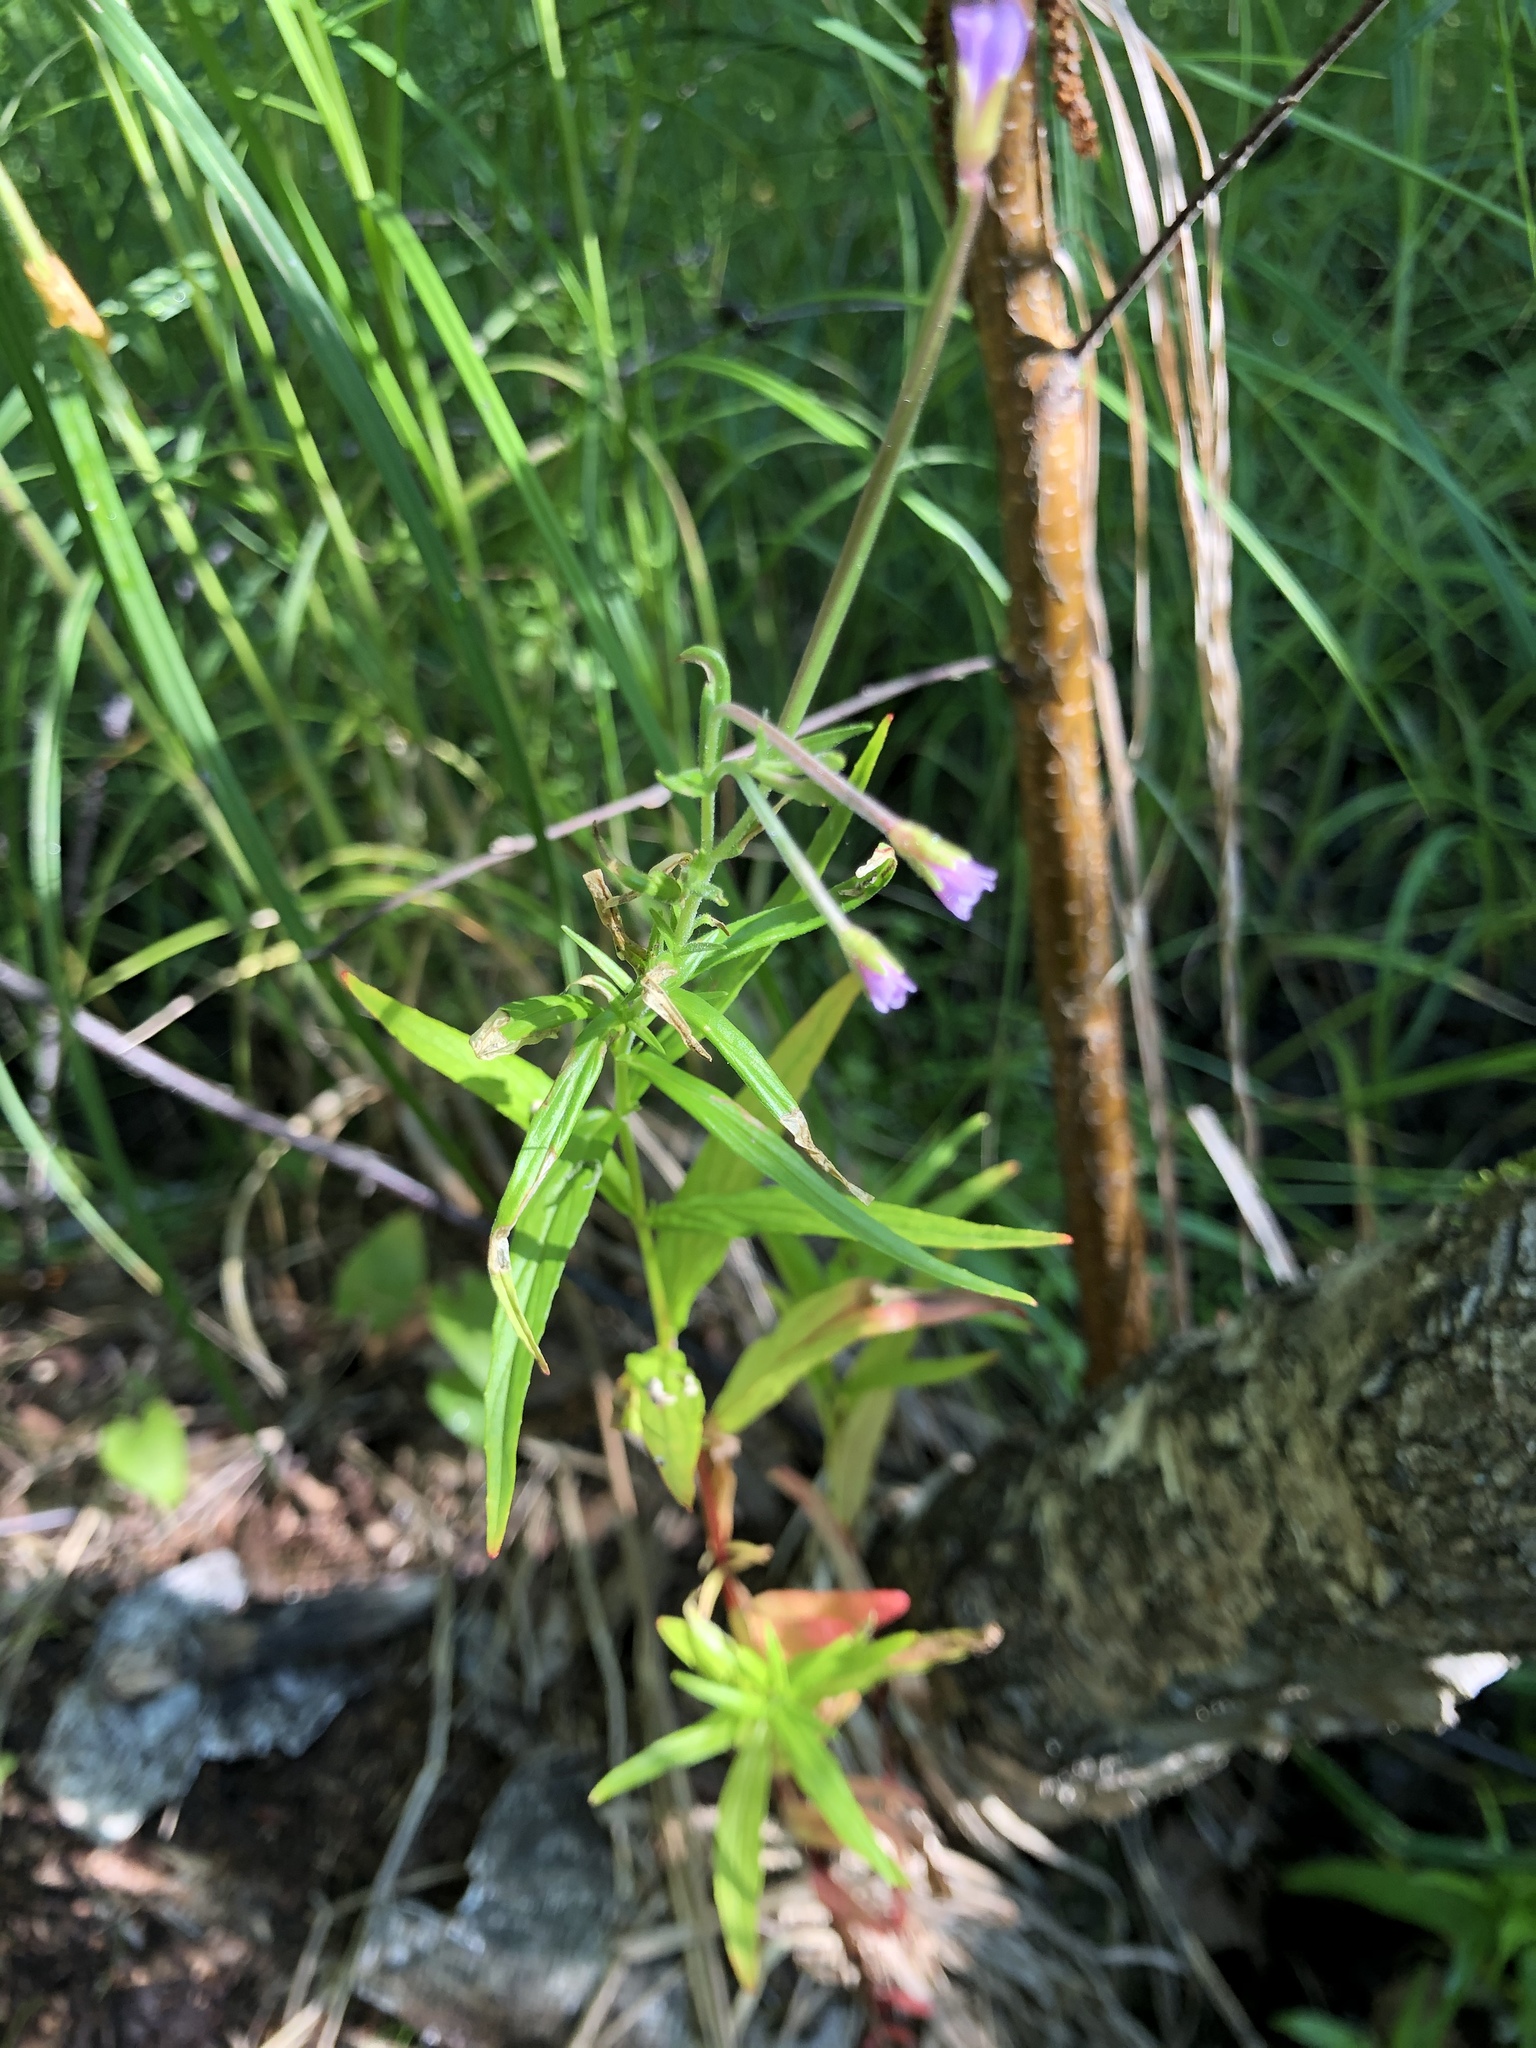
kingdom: Plantae
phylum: Tracheophyta
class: Magnoliopsida
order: Myrtales
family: Onagraceae
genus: Epilobium
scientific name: Epilobium palustre
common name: Marsh willowherb
